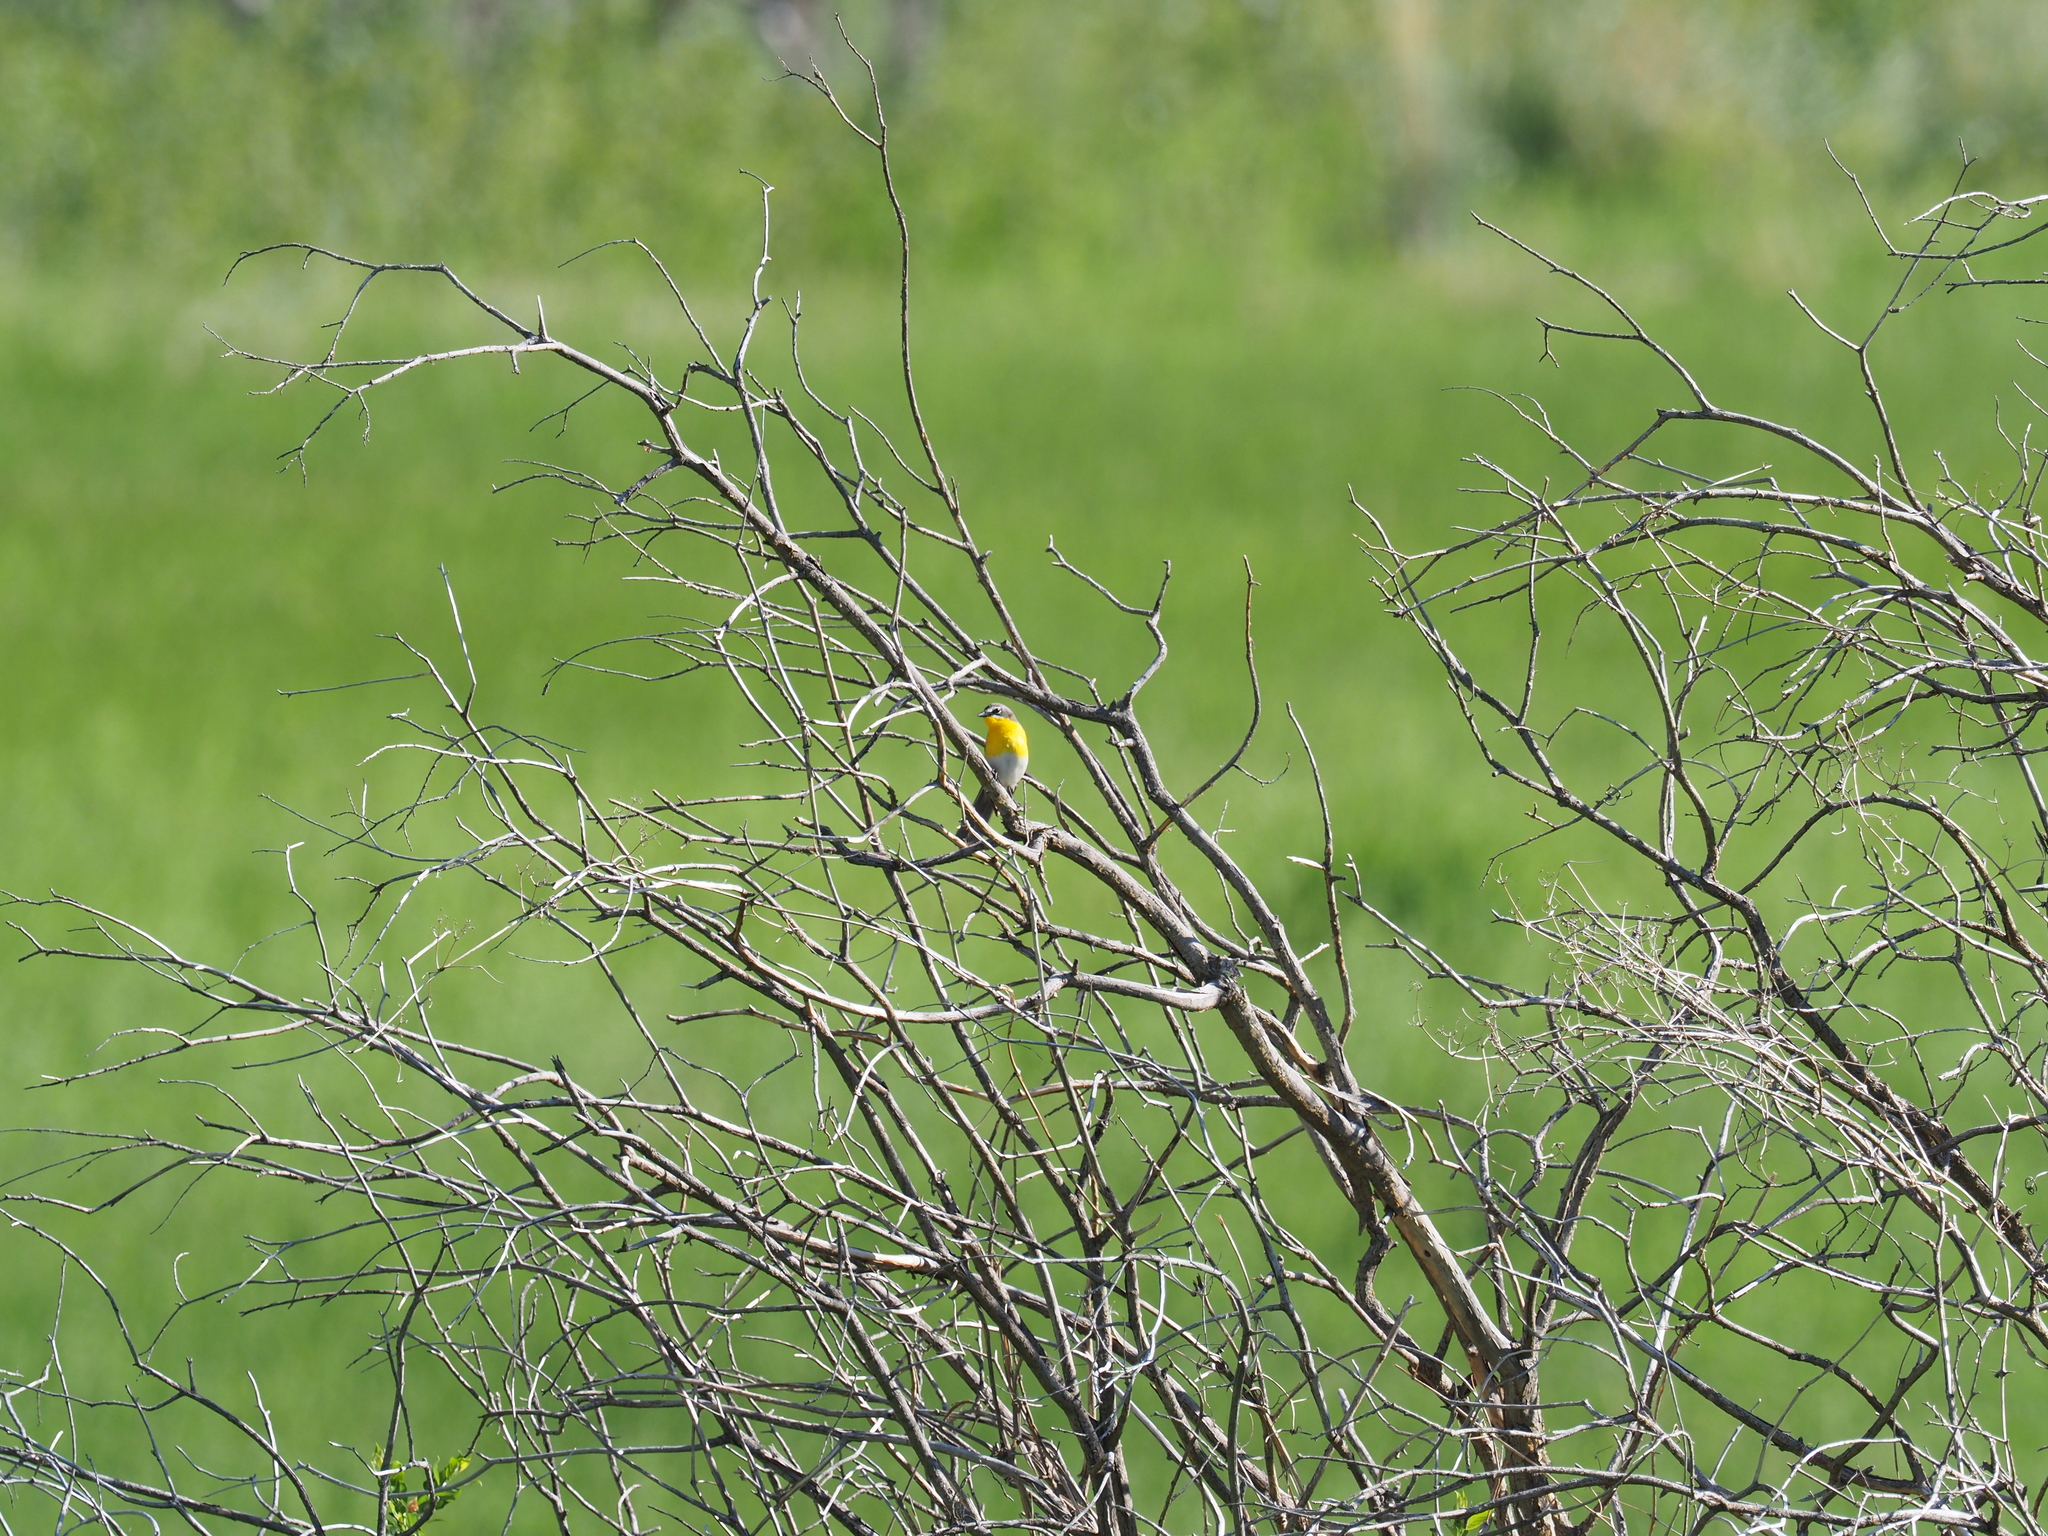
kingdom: Animalia
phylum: Chordata
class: Aves
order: Passeriformes
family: Parulidae
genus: Icteria
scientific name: Icteria virens
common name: Yellow-breasted chat
